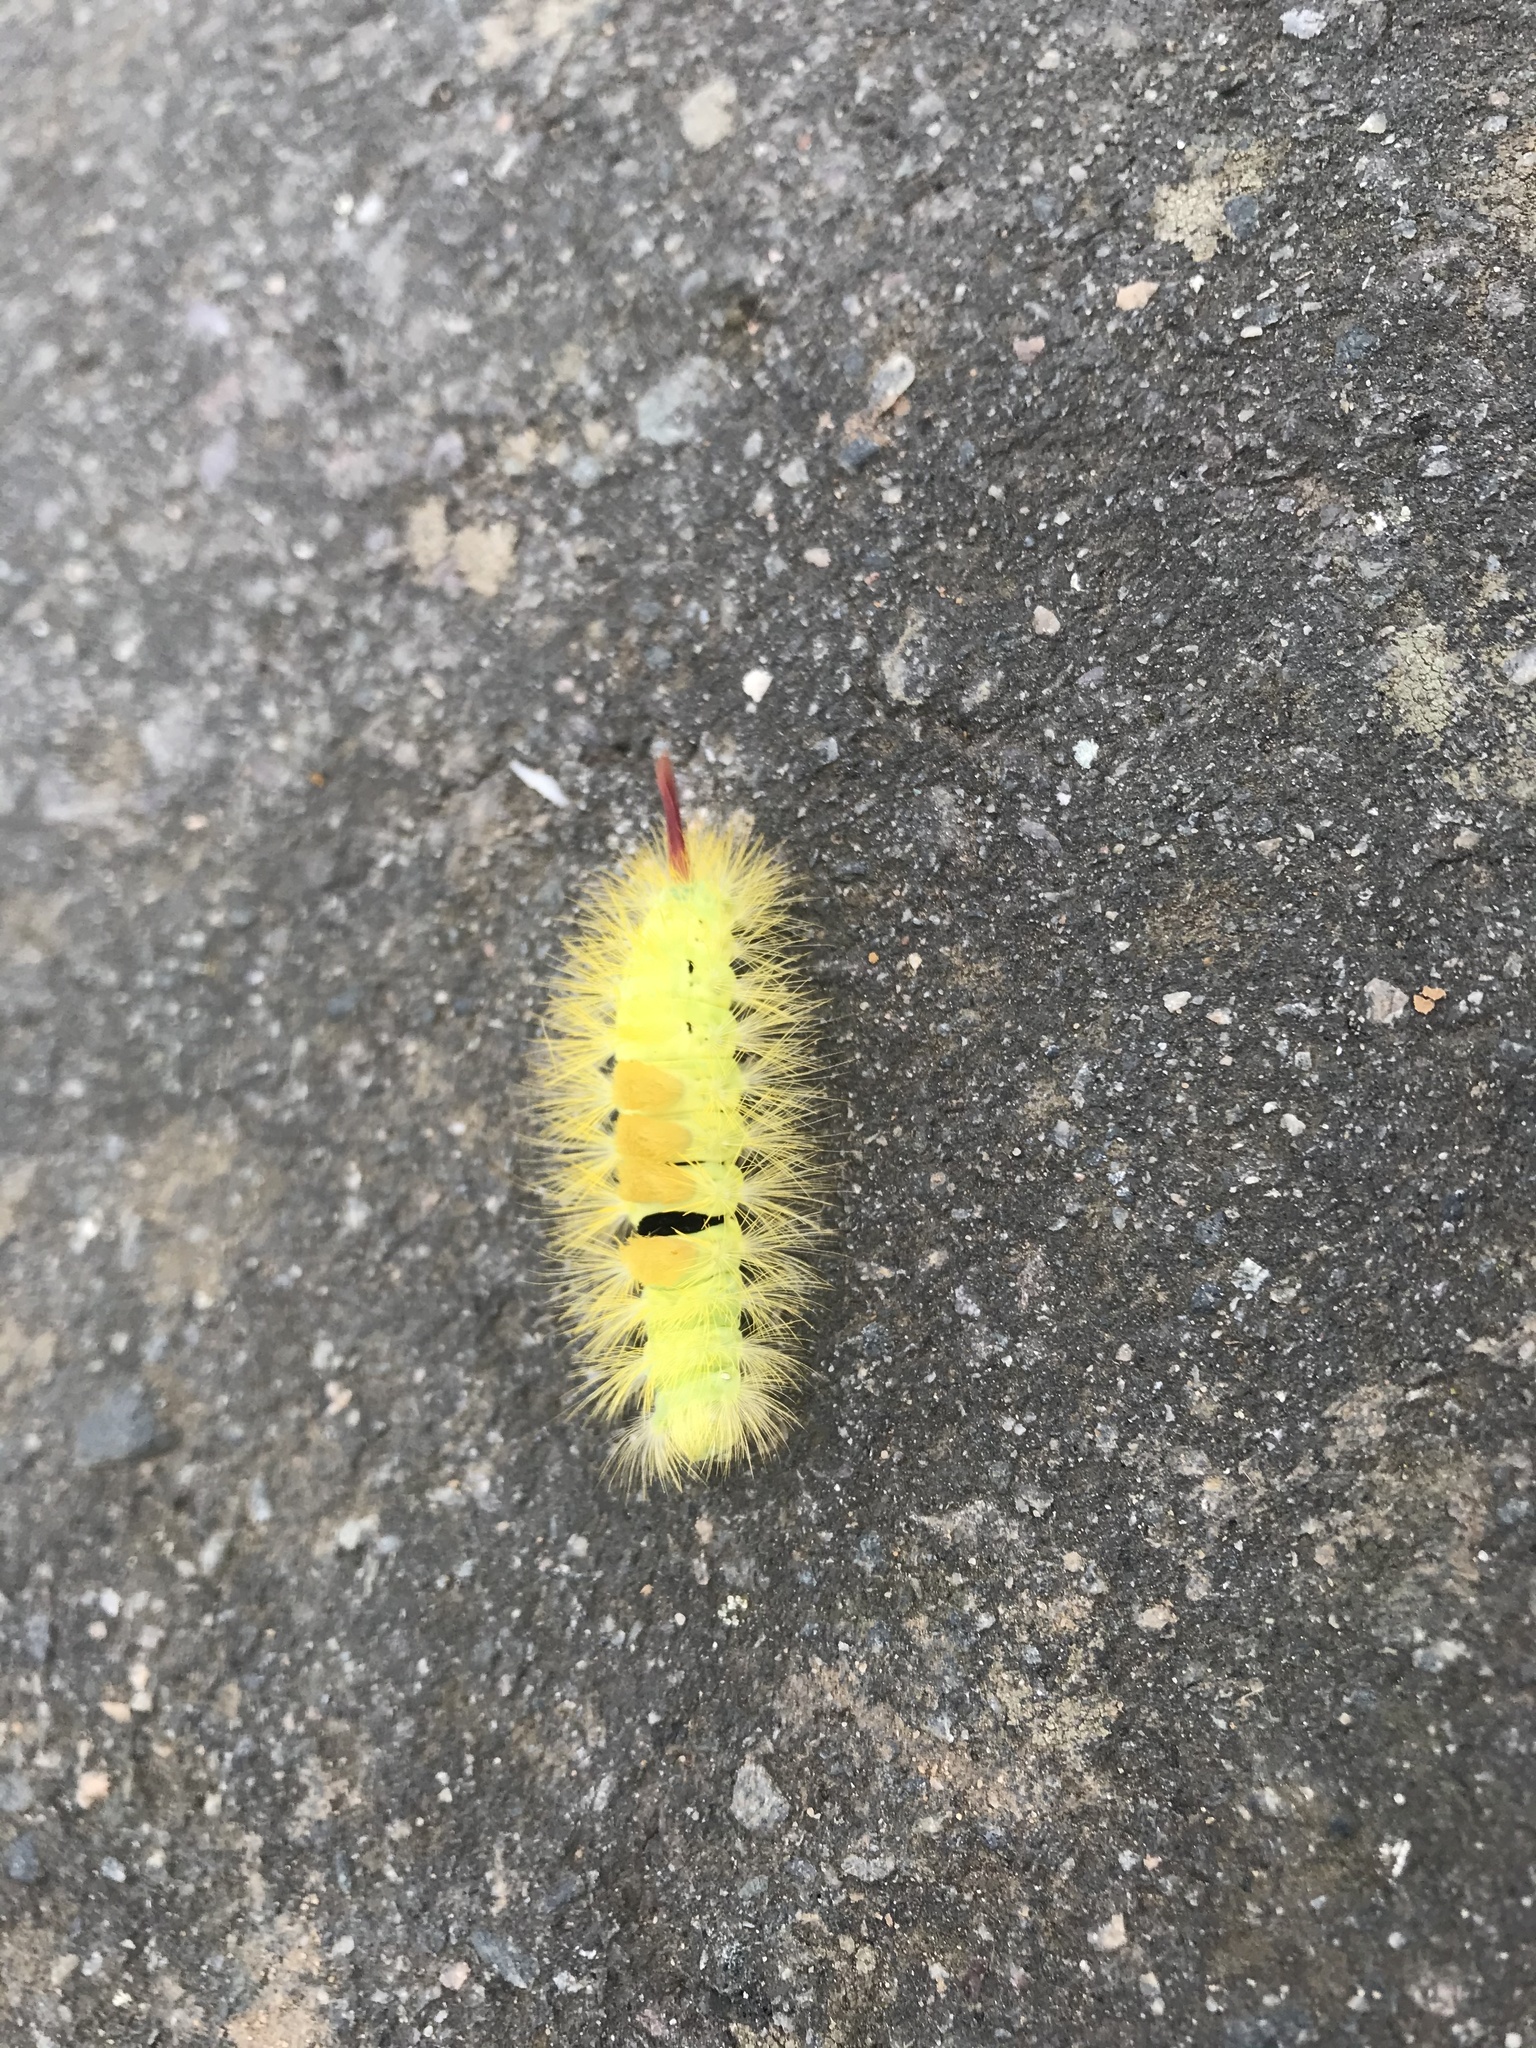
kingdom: Animalia
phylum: Arthropoda
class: Insecta
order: Lepidoptera
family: Erebidae
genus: Calliteara
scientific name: Calliteara pudibunda
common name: Pale tussock
